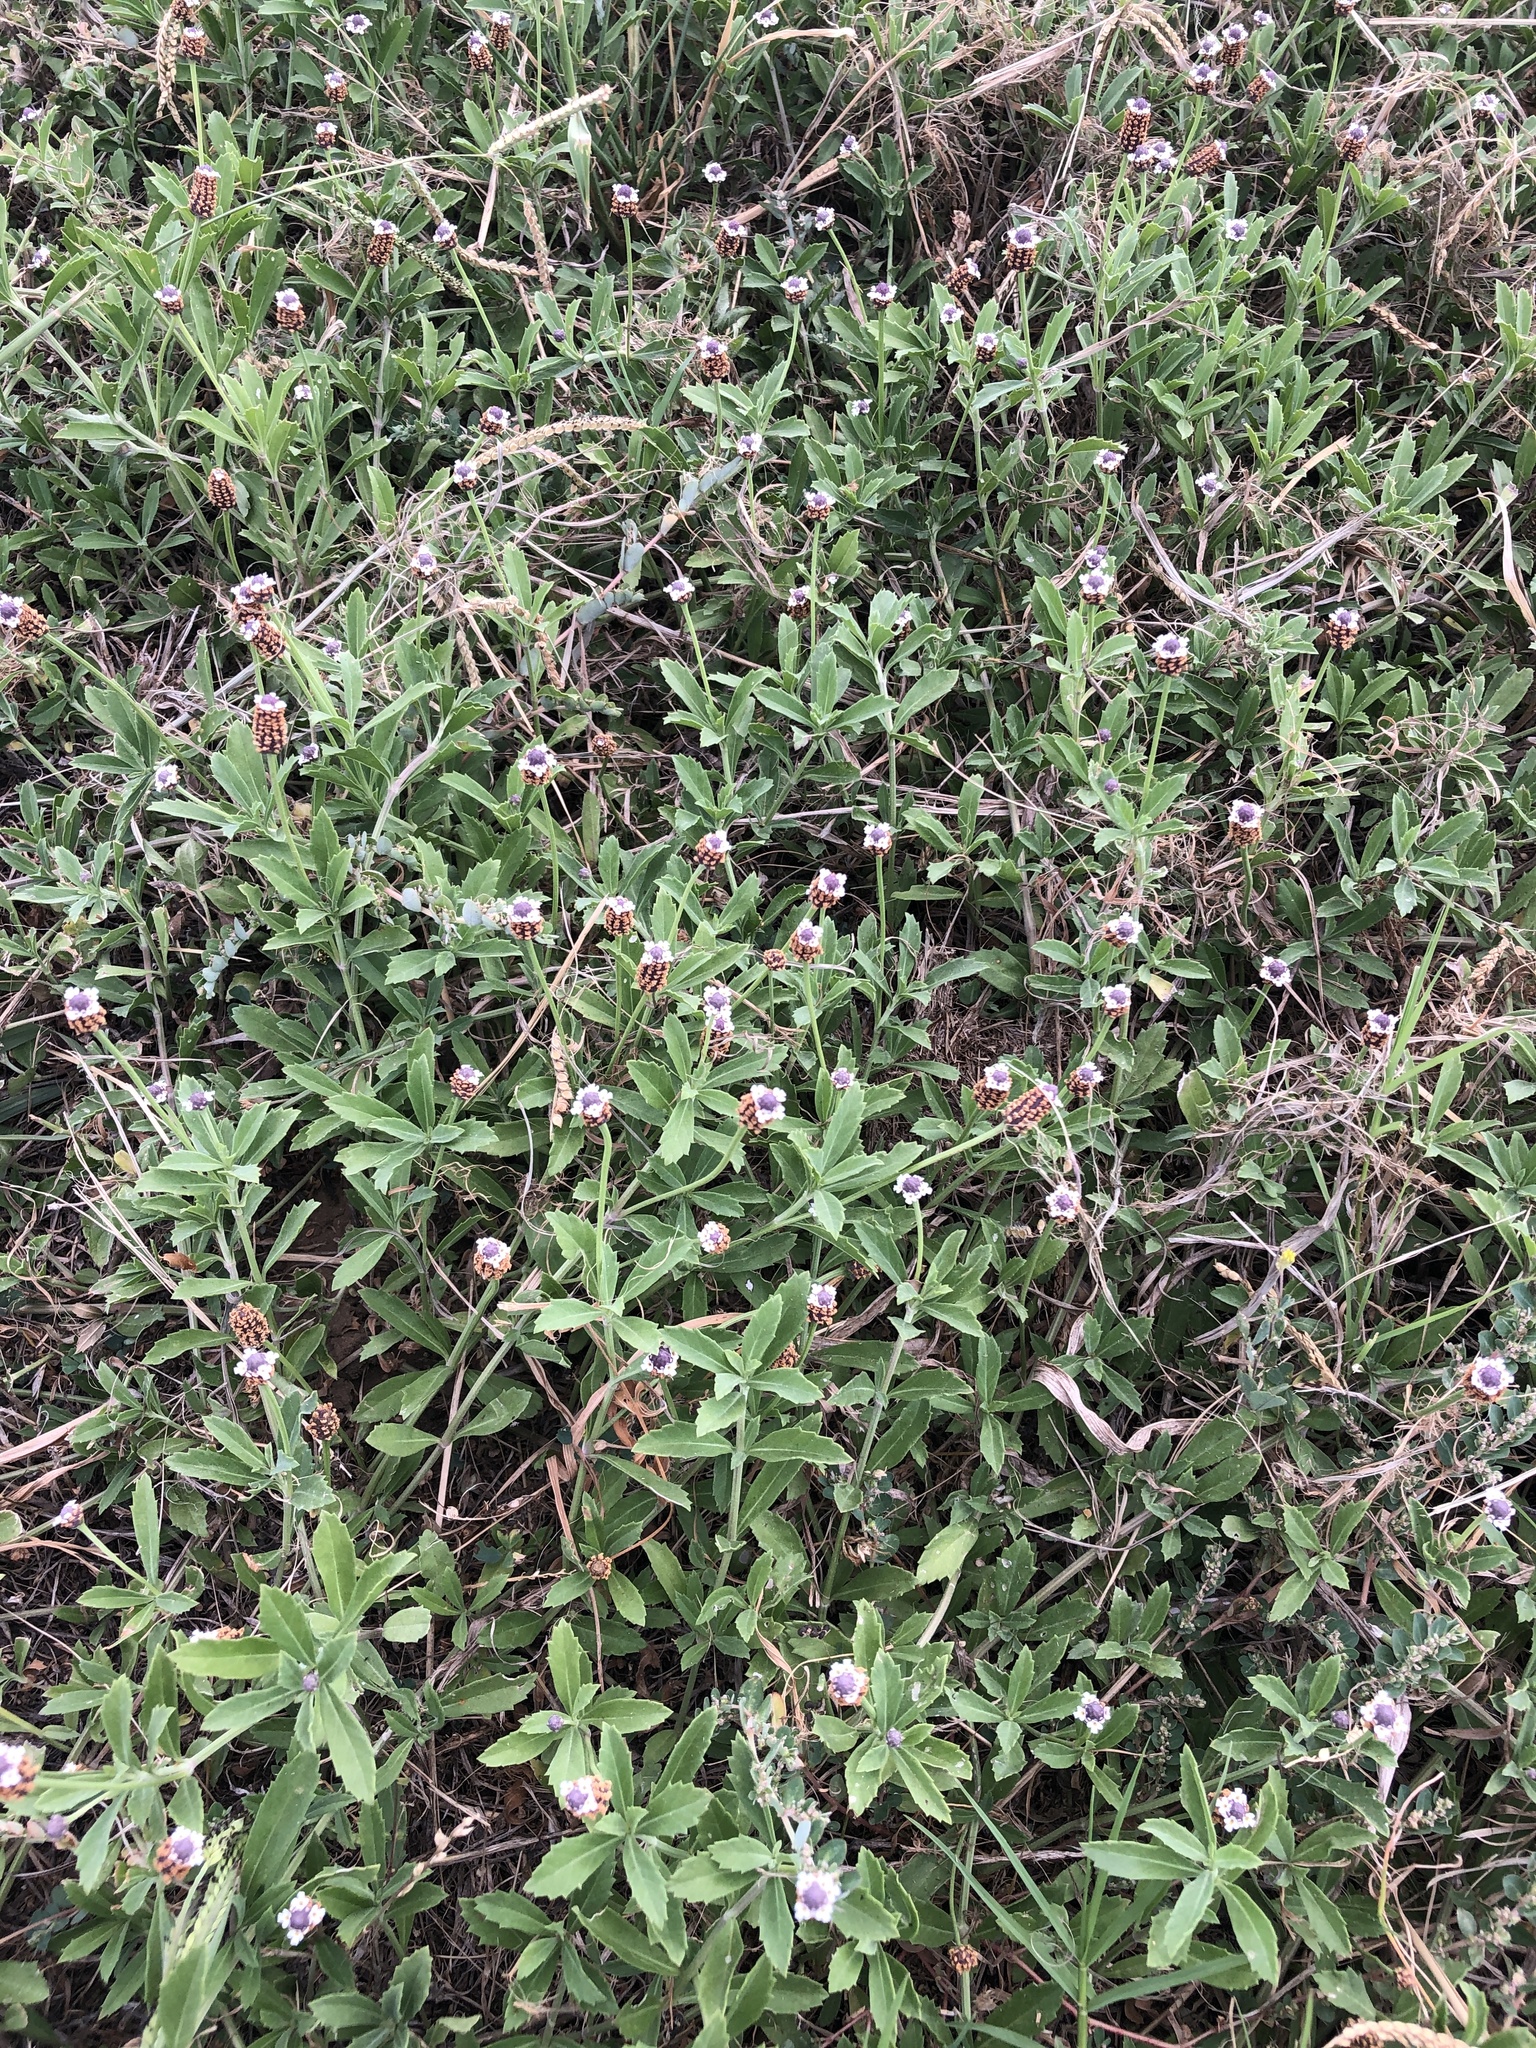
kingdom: Plantae
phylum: Tracheophyta
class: Magnoliopsida
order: Lamiales
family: Verbenaceae
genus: Phyla
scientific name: Phyla nodiflora
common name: Frogfruit
